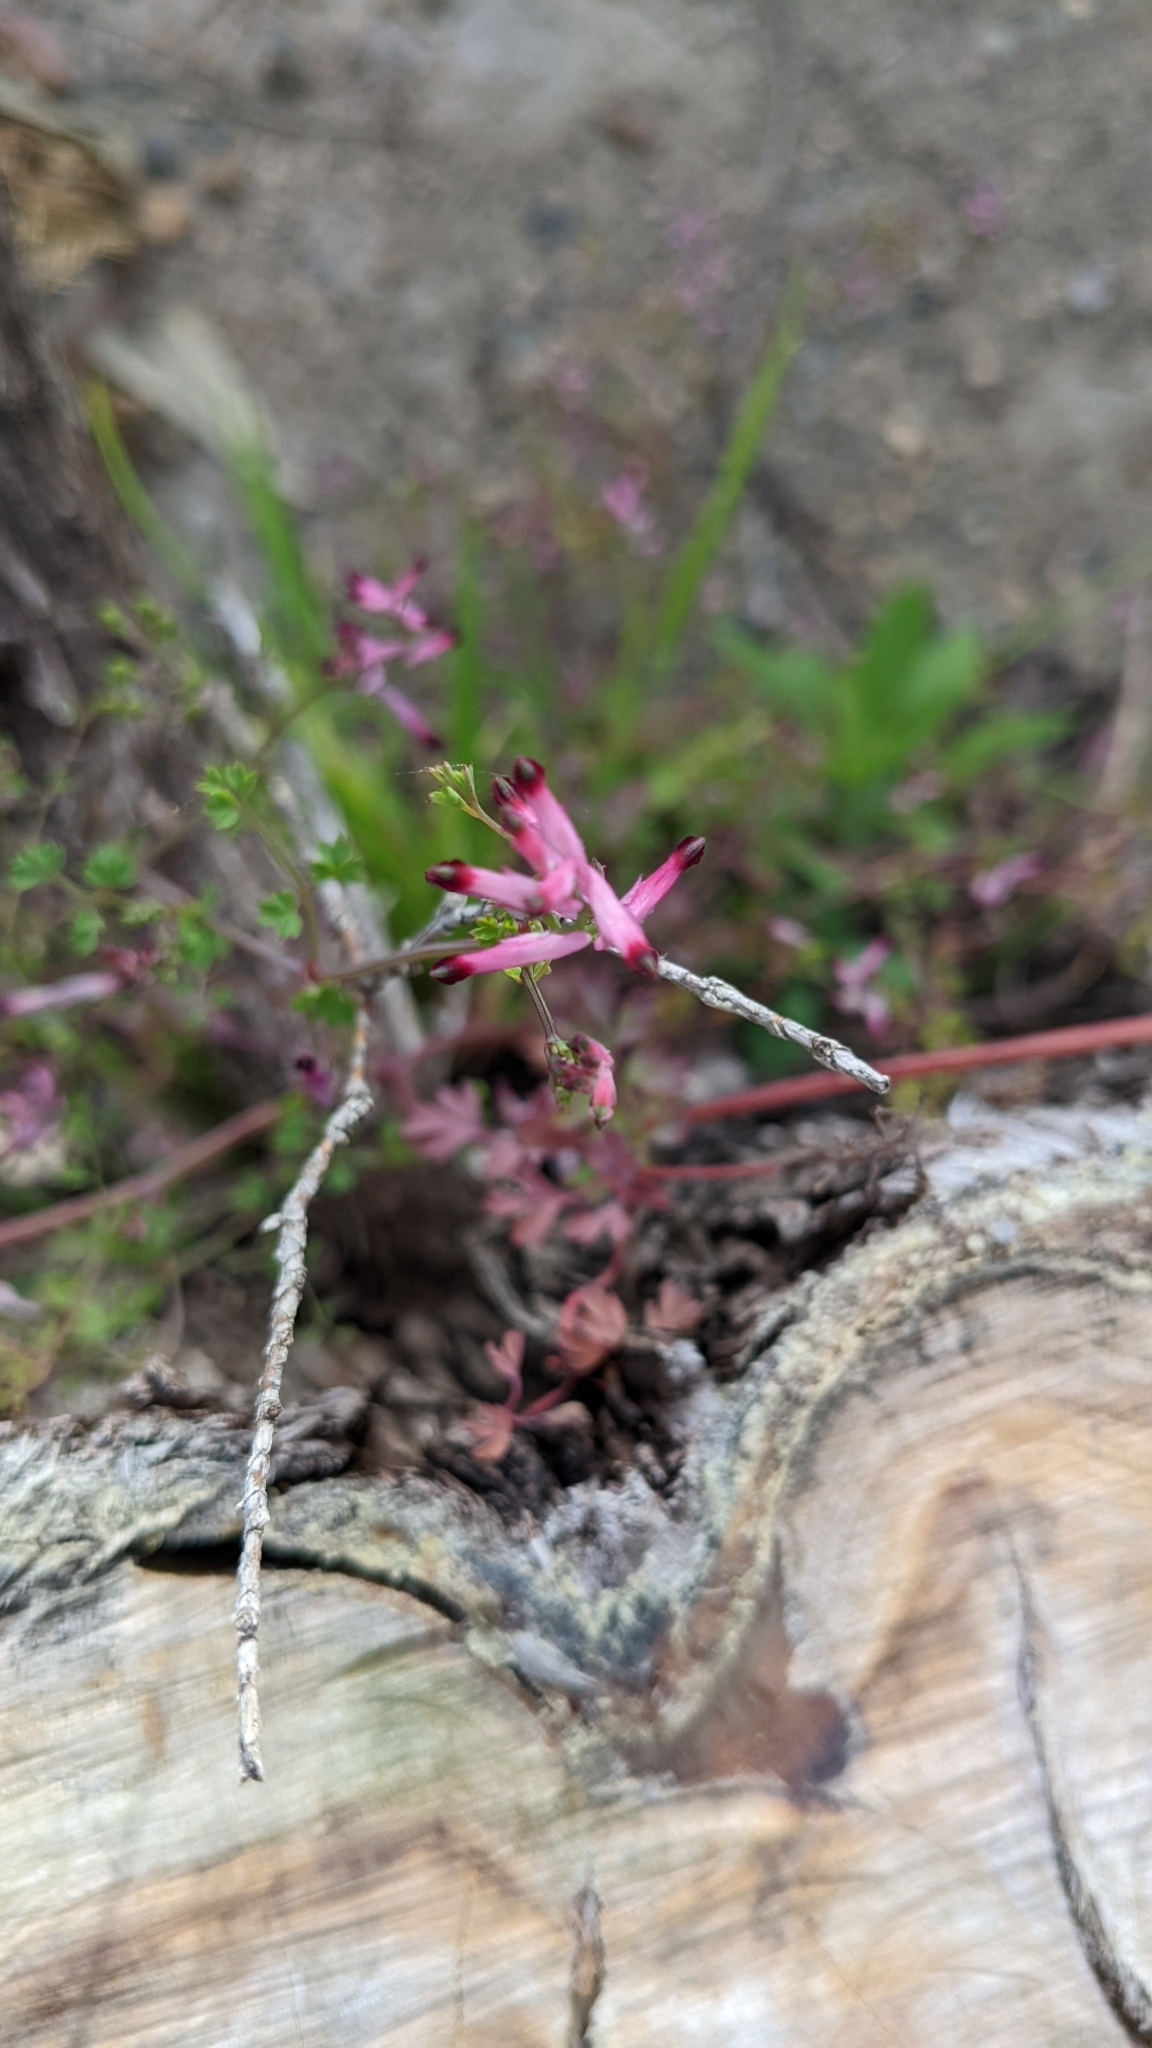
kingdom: Plantae
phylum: Tracheophyta
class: Magnoliopsida
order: Ranunculales
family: Papaveraceae
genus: Fumaria
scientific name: Fumaria muralis
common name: Common ramping-fumitory
